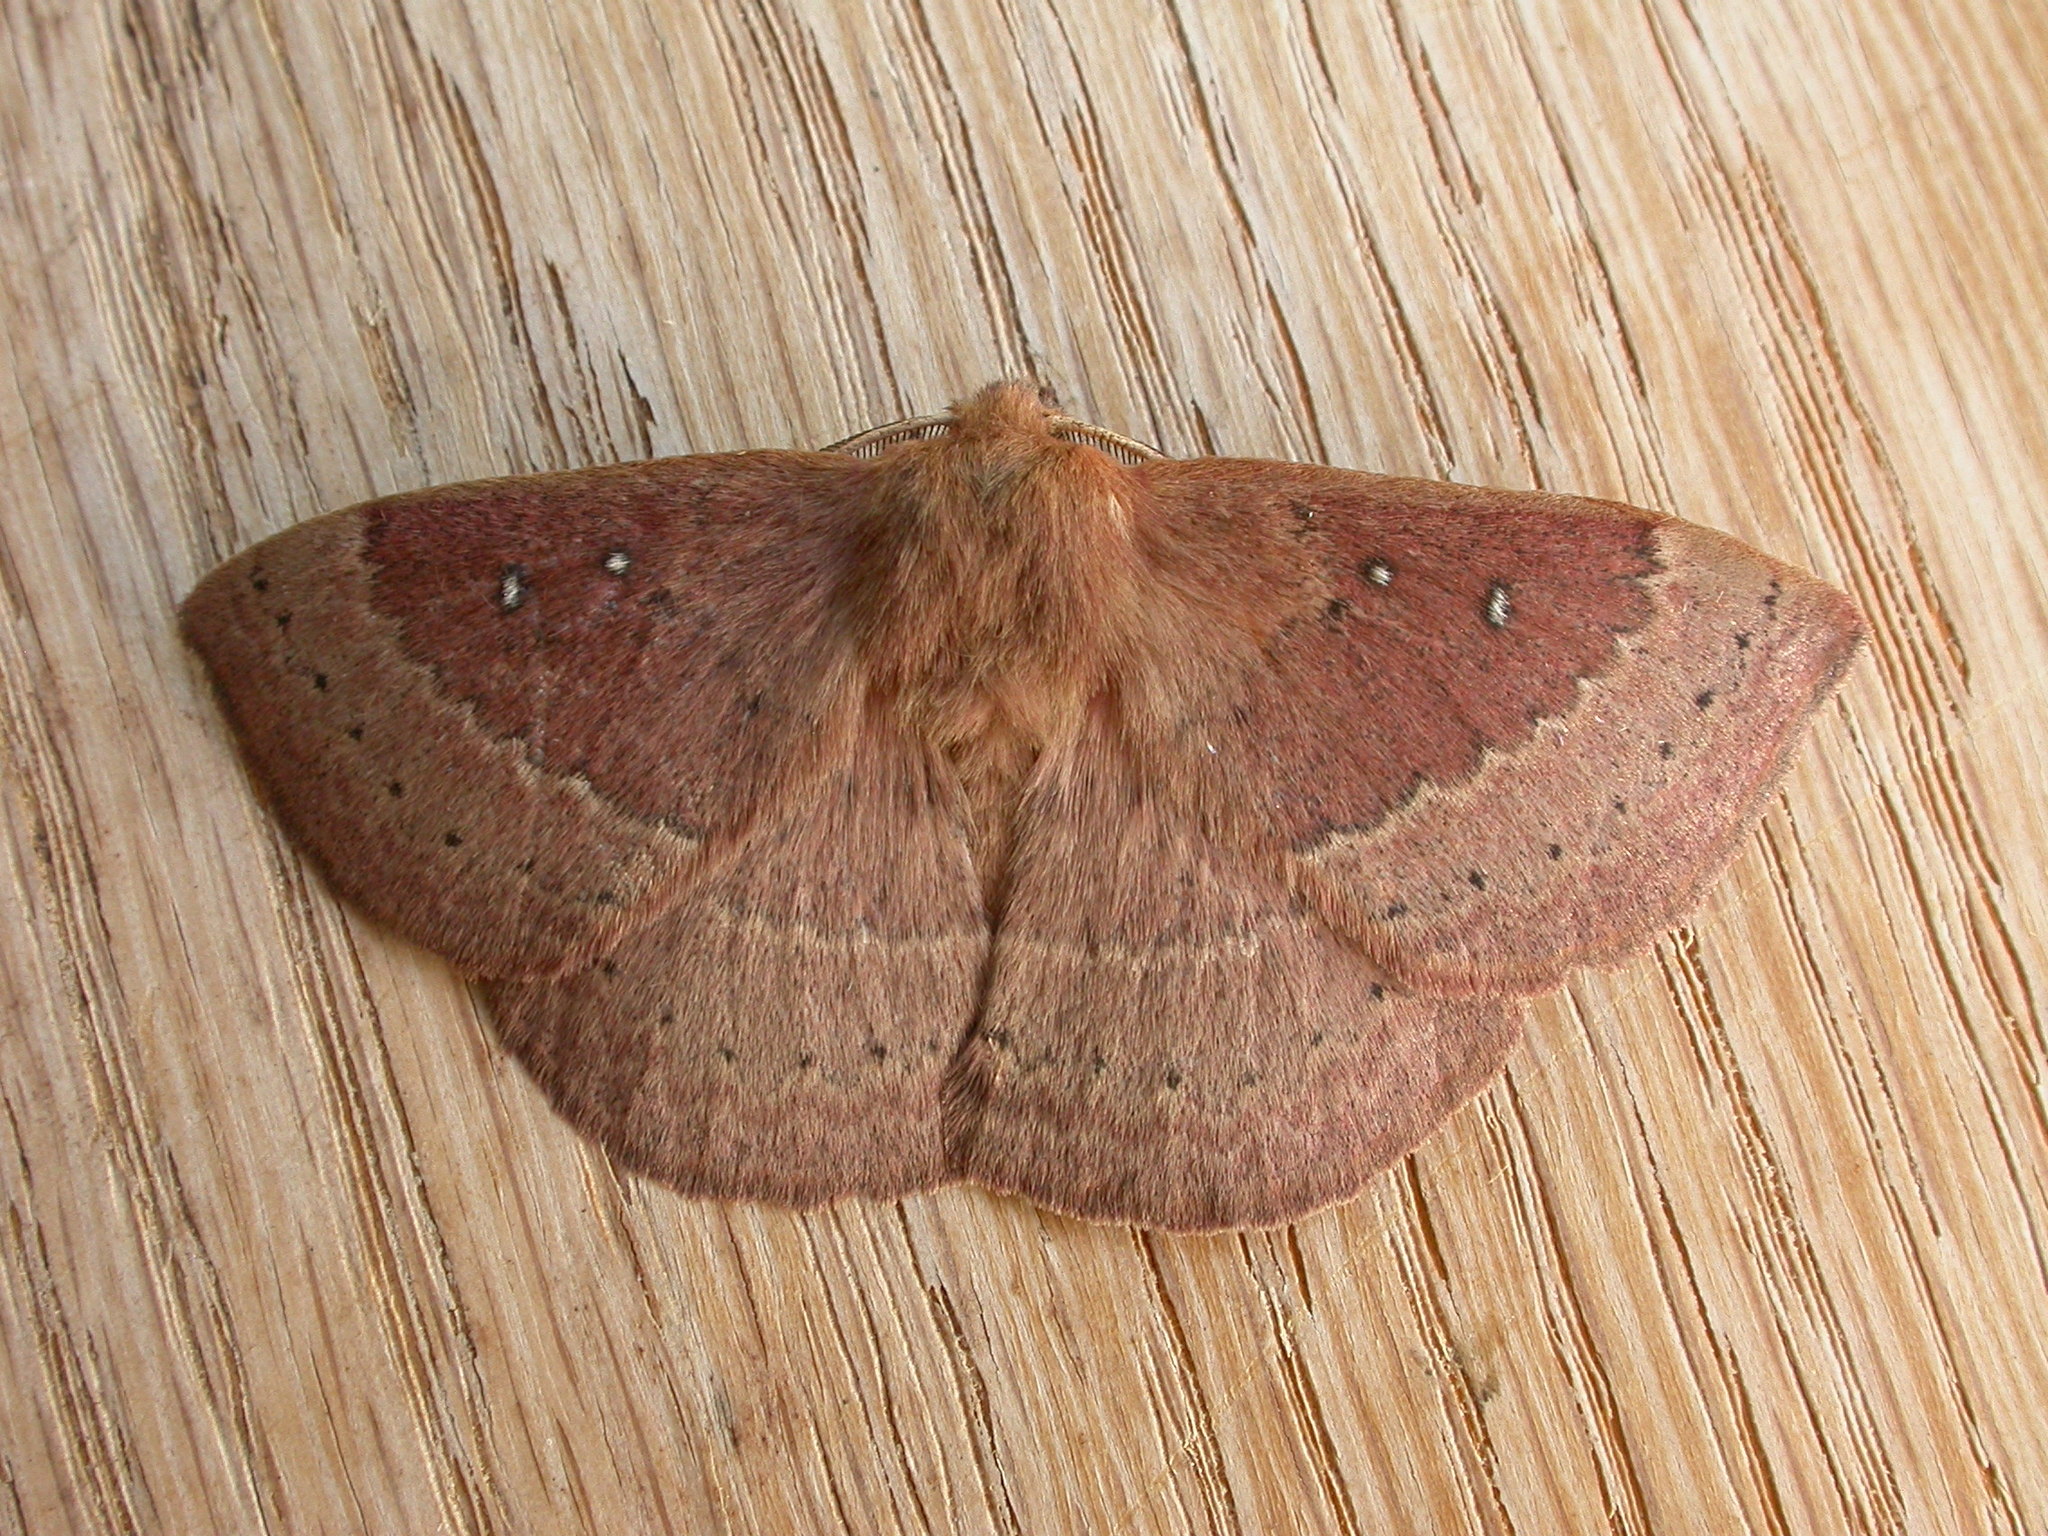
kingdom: Animalia
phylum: Arthropoda
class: Insecta
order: Lepidoptera
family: Anthelidae
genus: Anthela
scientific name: Anthela nicothoe
